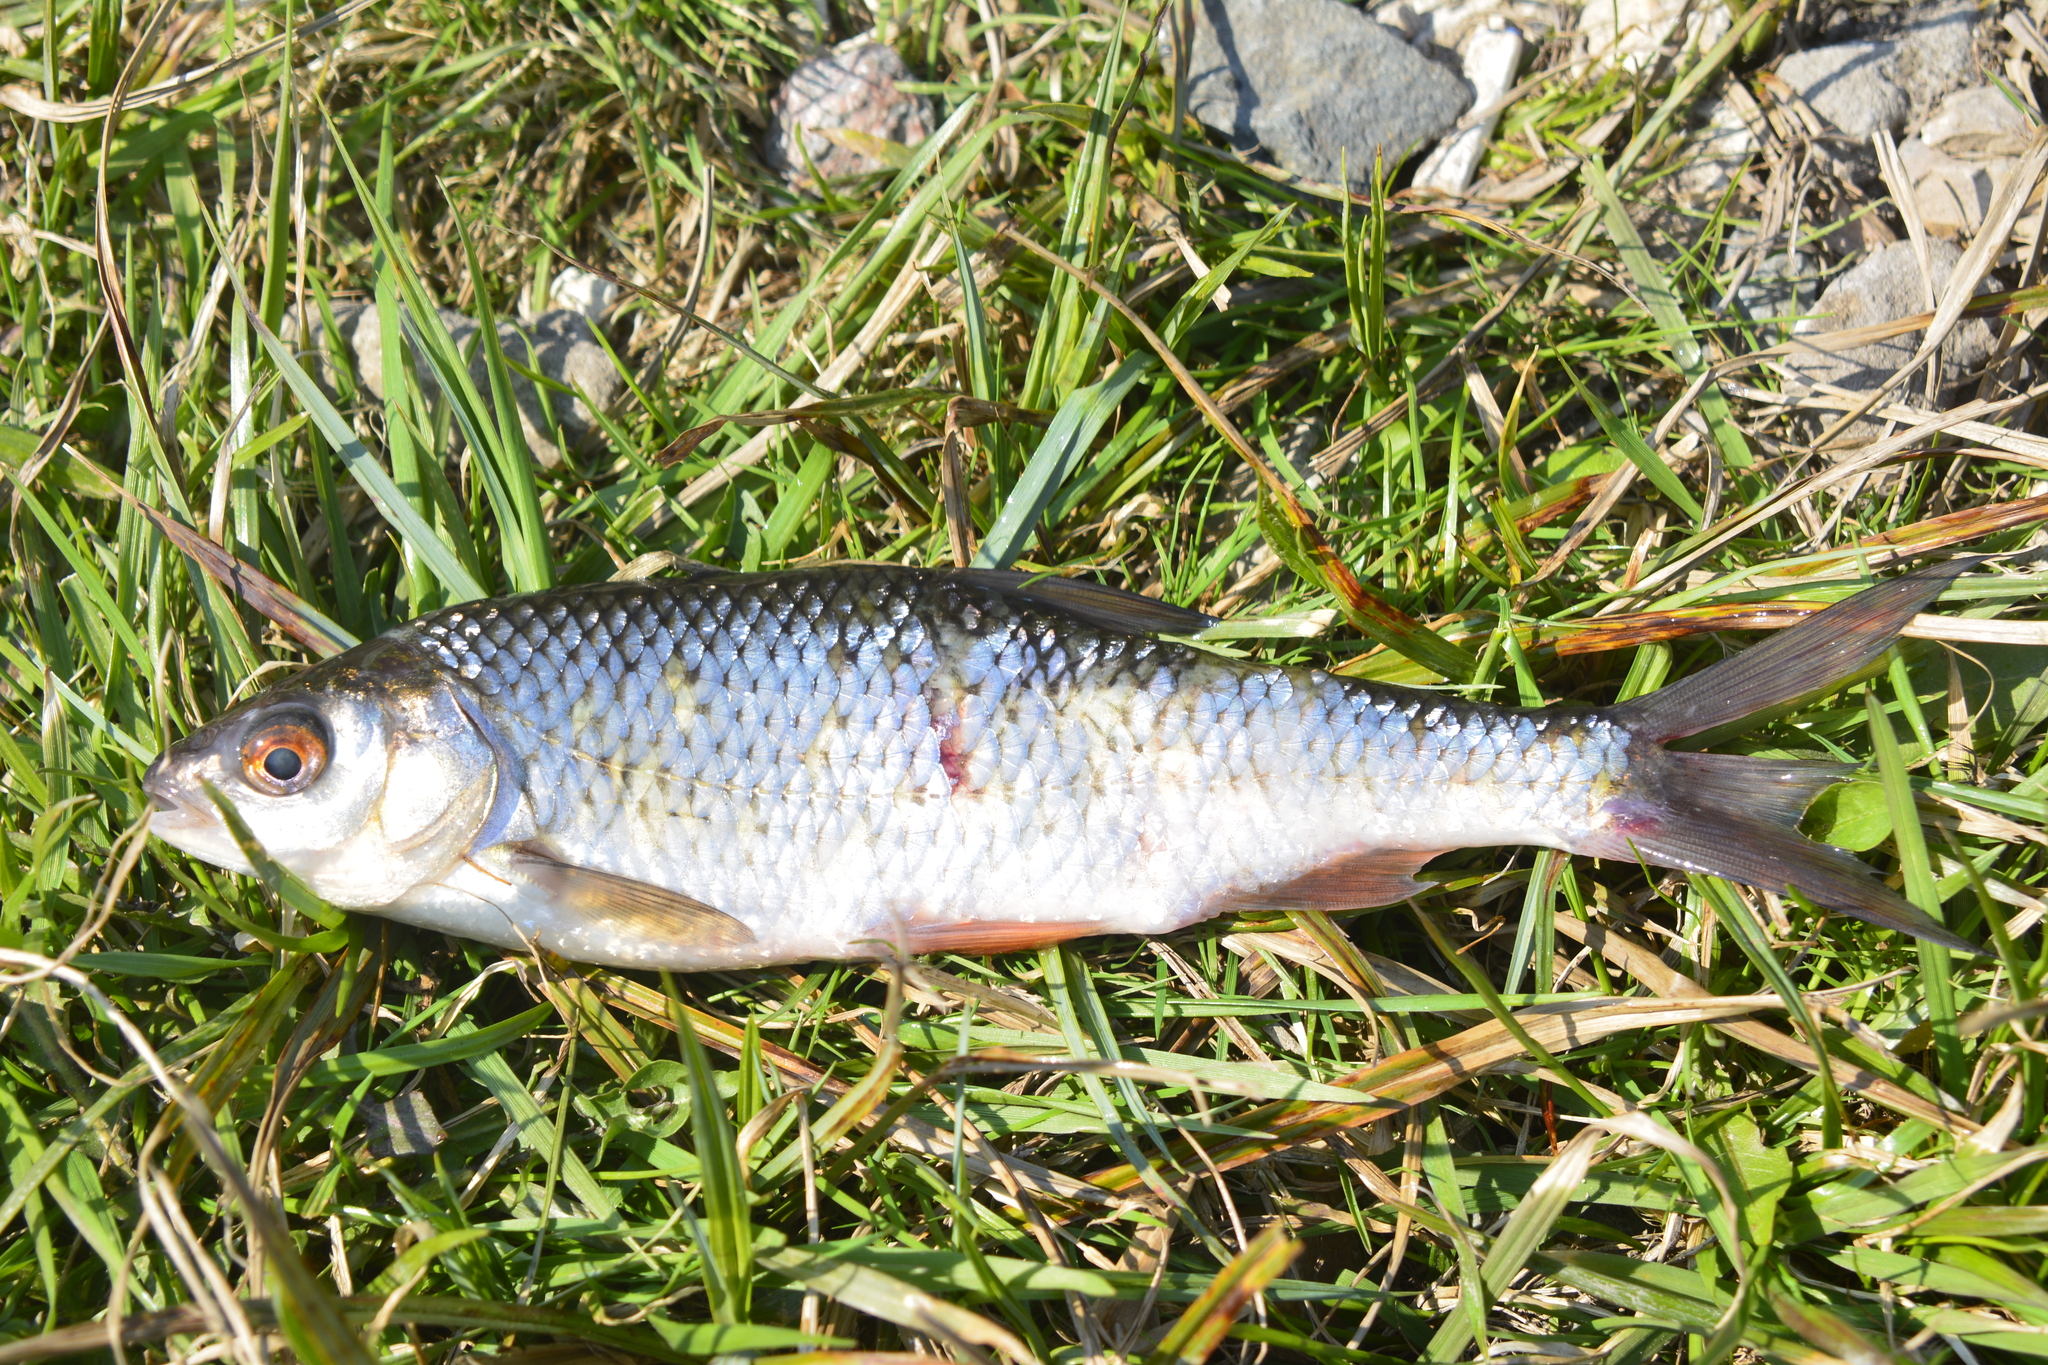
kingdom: Animalia
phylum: Chordata
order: Cypriniformes
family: Cyprinidae
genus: Rutilus
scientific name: Rutilus rutilus
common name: Roach
